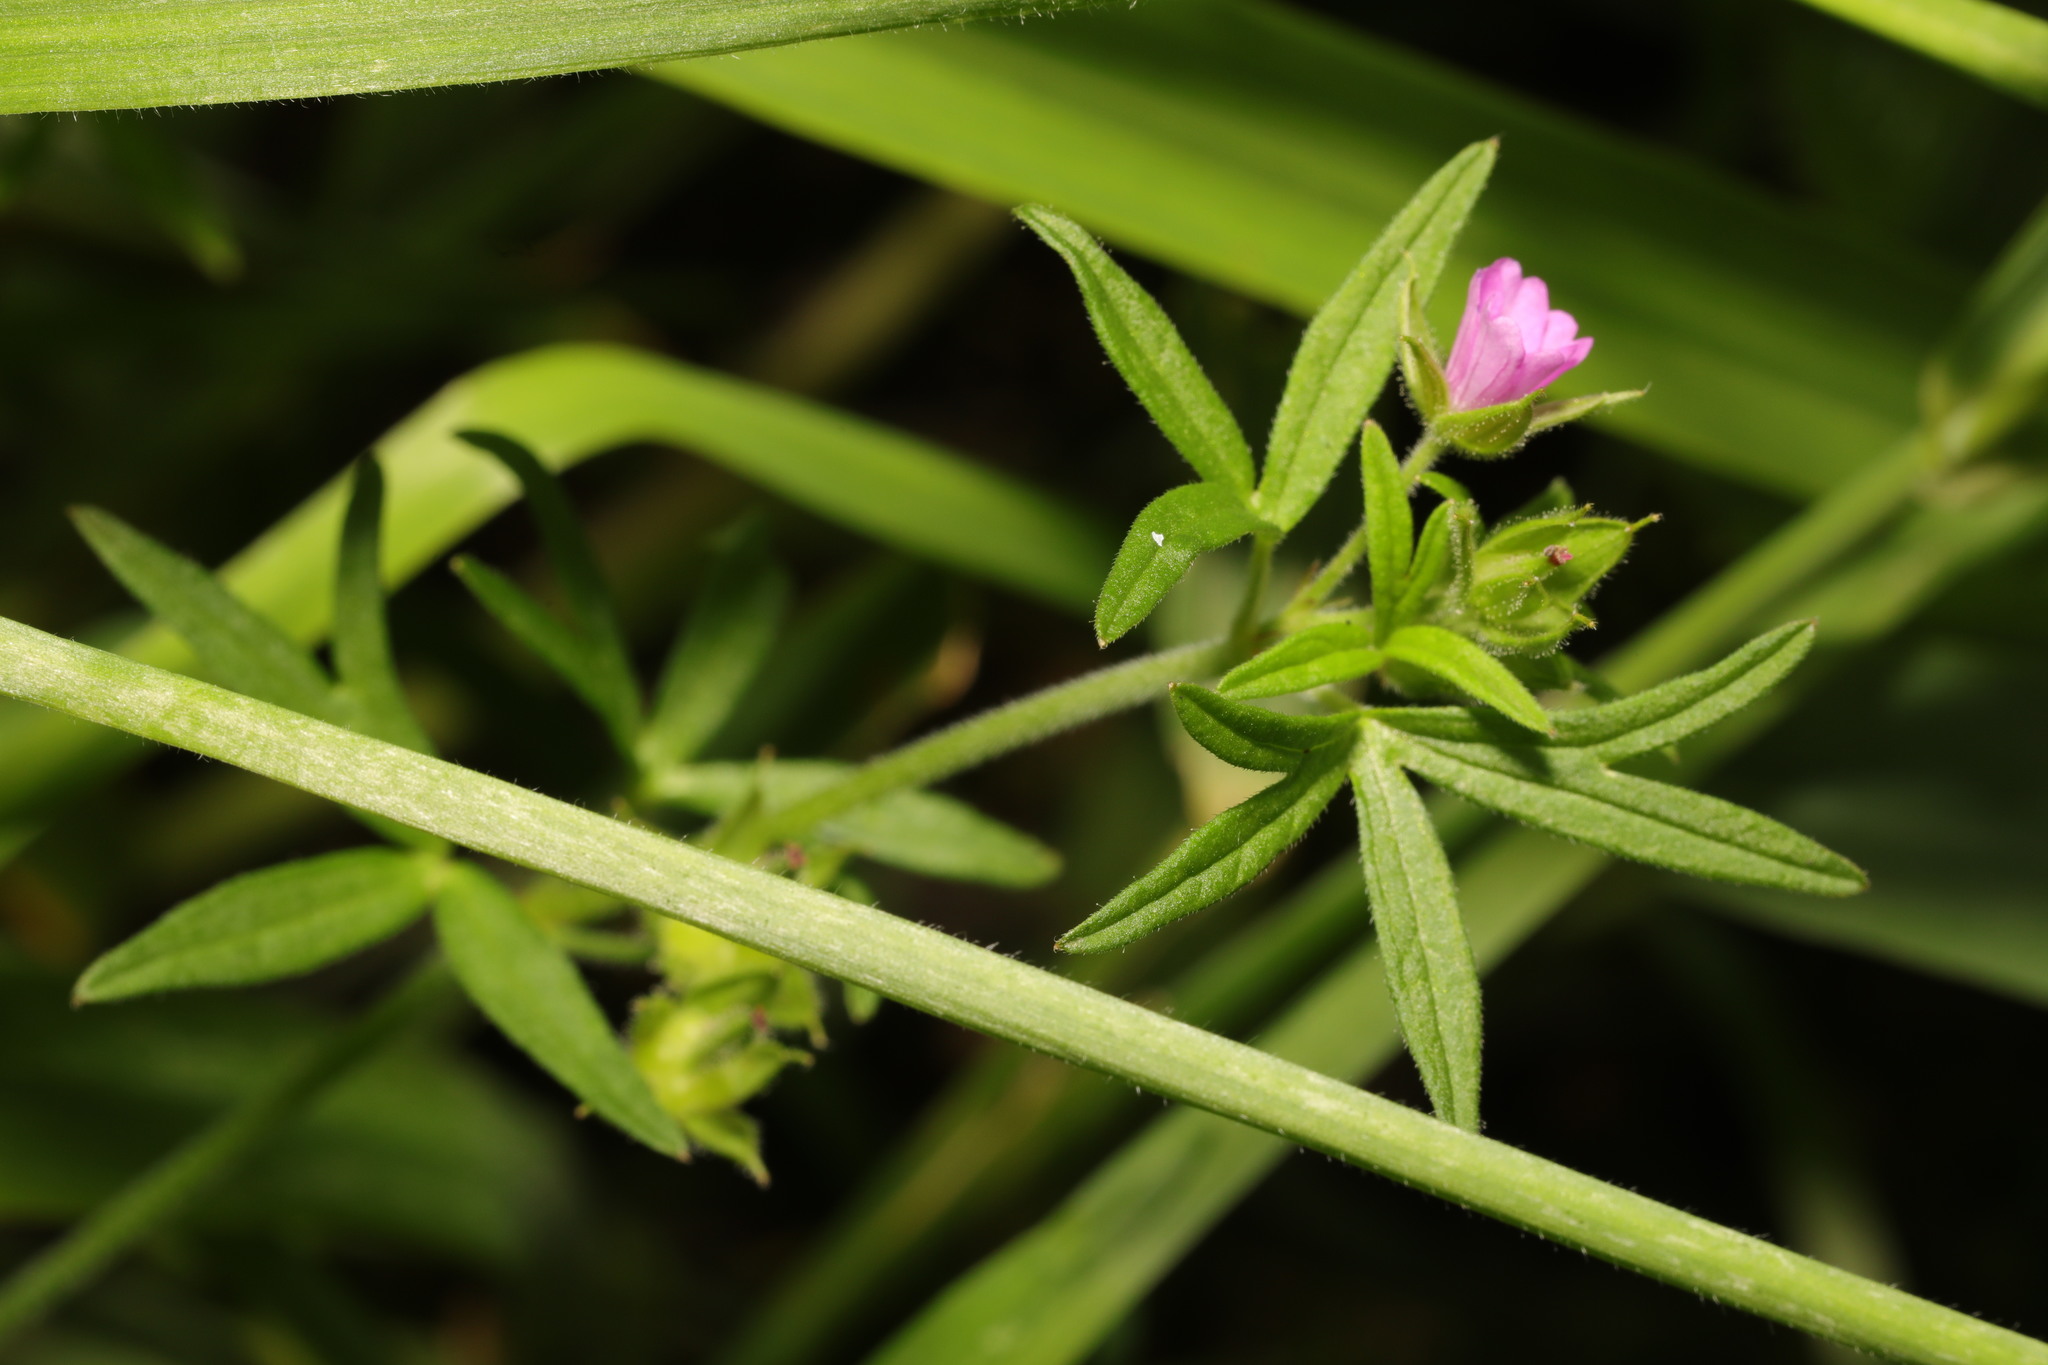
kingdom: Plantae
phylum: Tracheophyta
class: Magnoliopsida
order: Geraniales
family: Geraniaceae
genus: Geranium
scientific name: Geranium dissectum
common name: Cut-leaved crane's-bill
